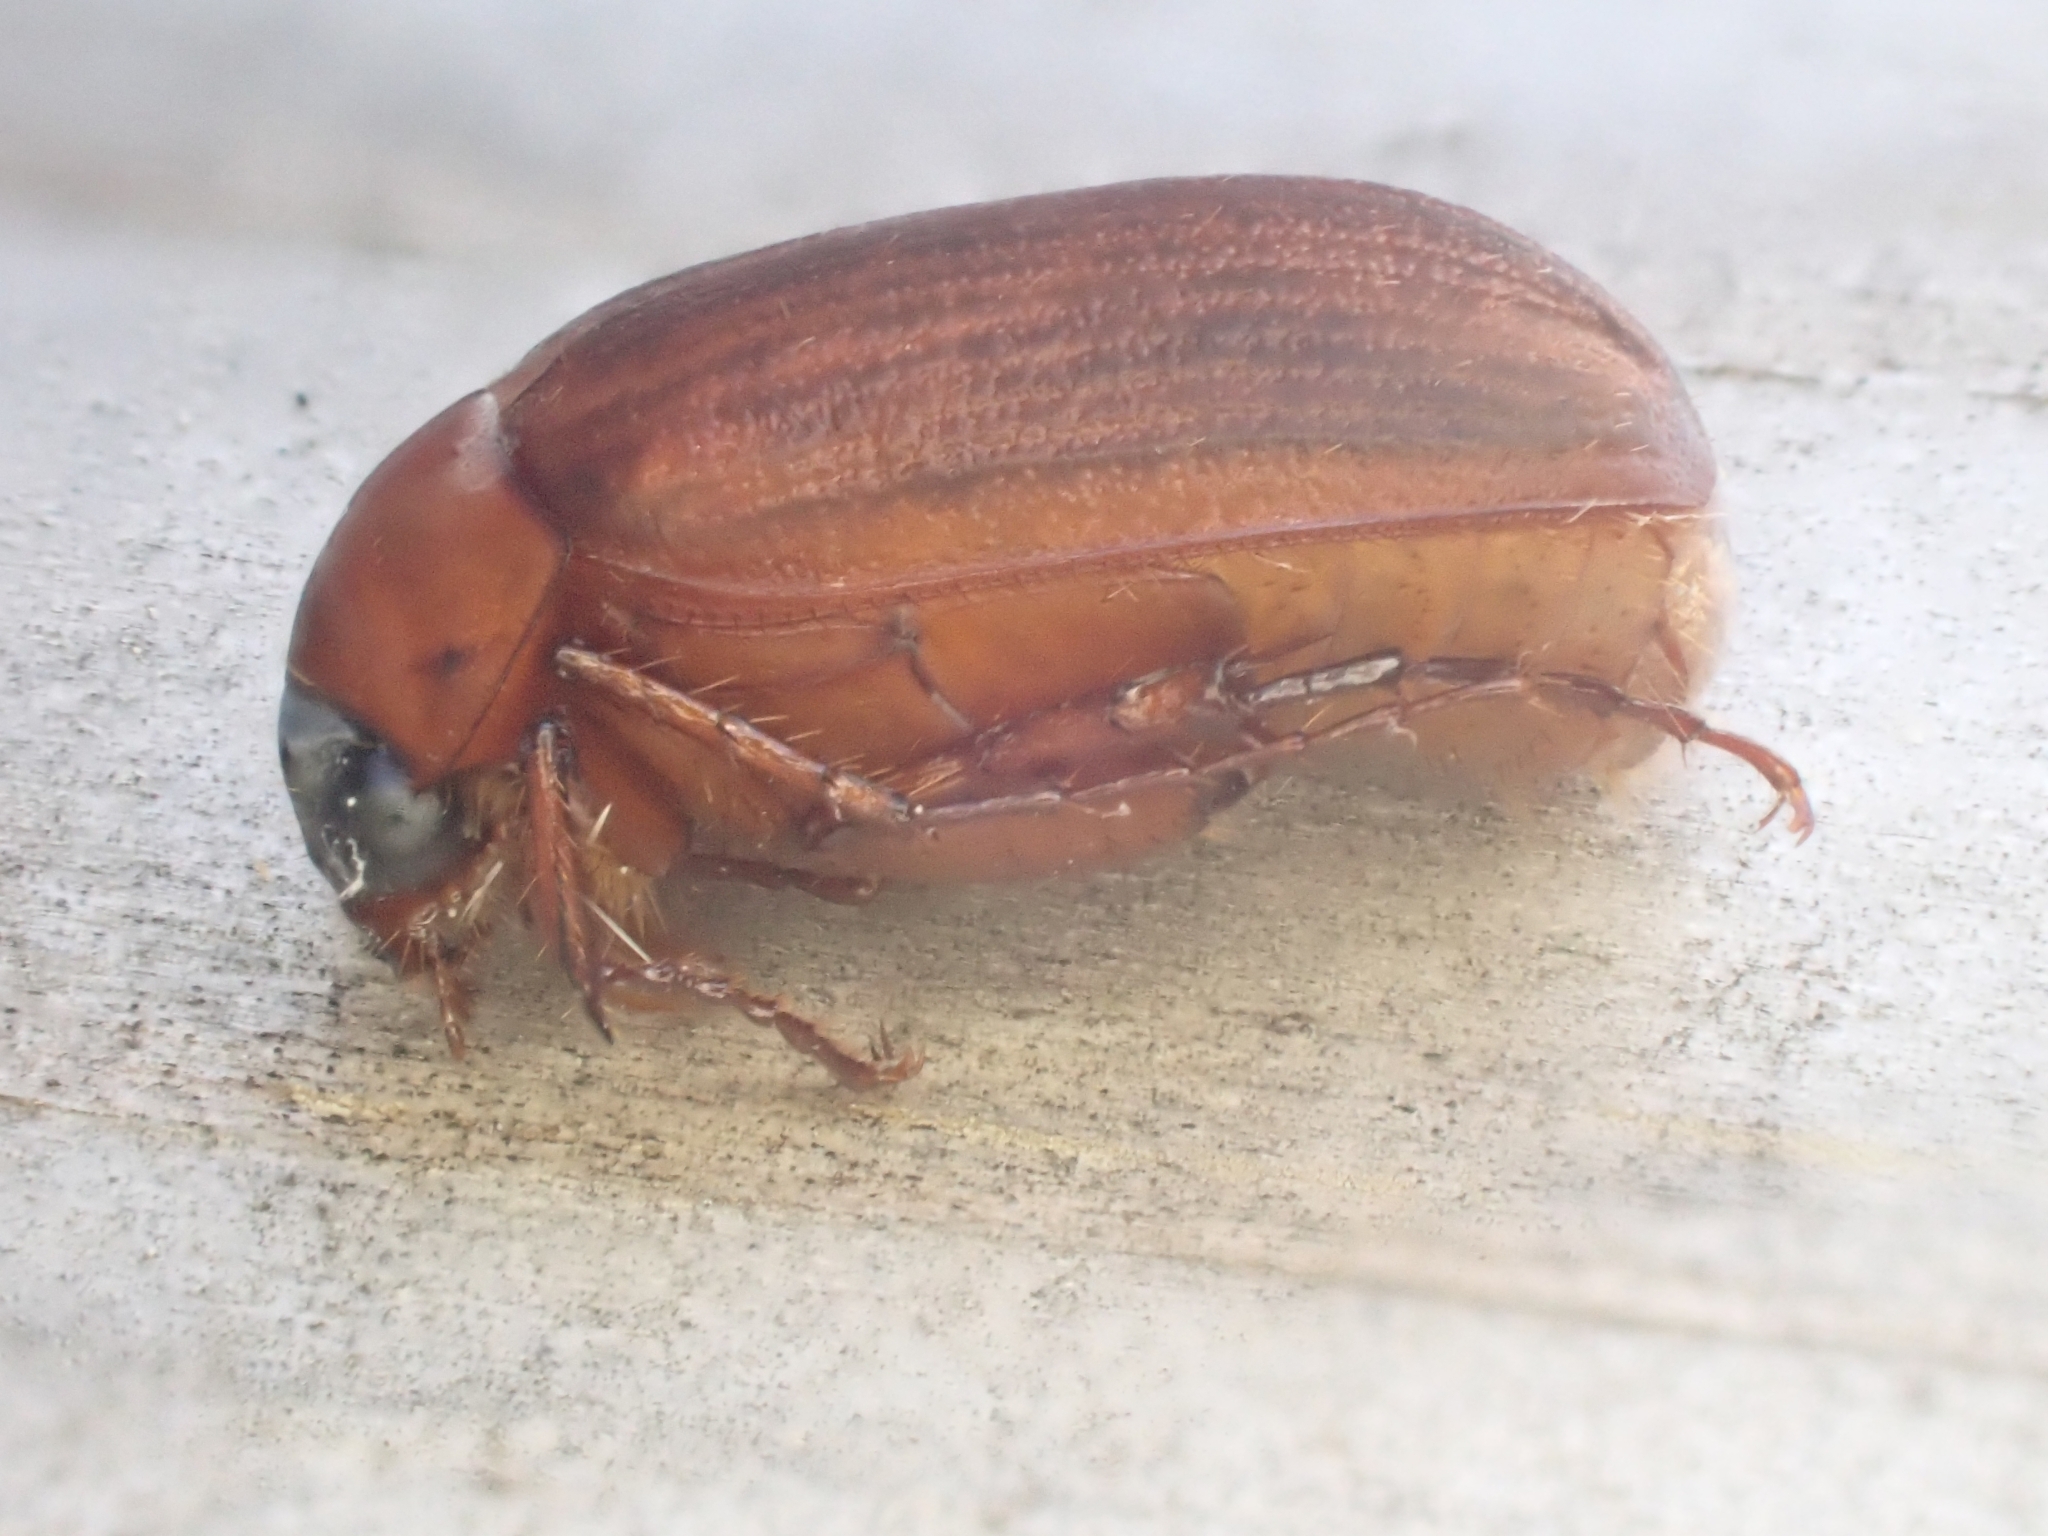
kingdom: Animalia
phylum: Arthropoda
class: Insecta
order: Coleoptera
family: Scarabaeidae
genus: Serica
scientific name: Serica brunnea
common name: Brown chafer
